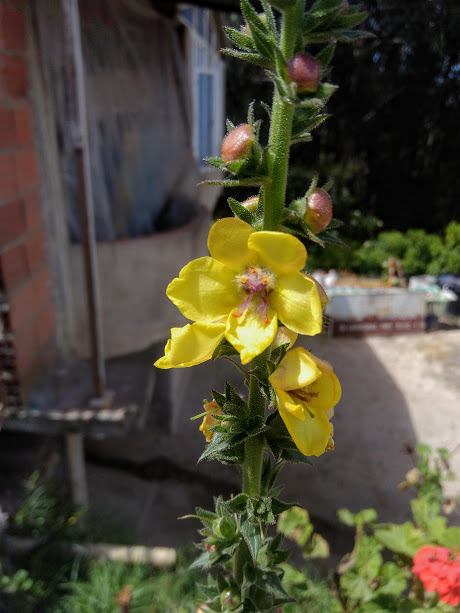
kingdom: Plantae
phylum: Tracheophyta
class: Magnoliopsida
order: Lamiales
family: Scrophulariaceae
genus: Verbascum
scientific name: Verbascum virgatum
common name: Twiggy mullein
